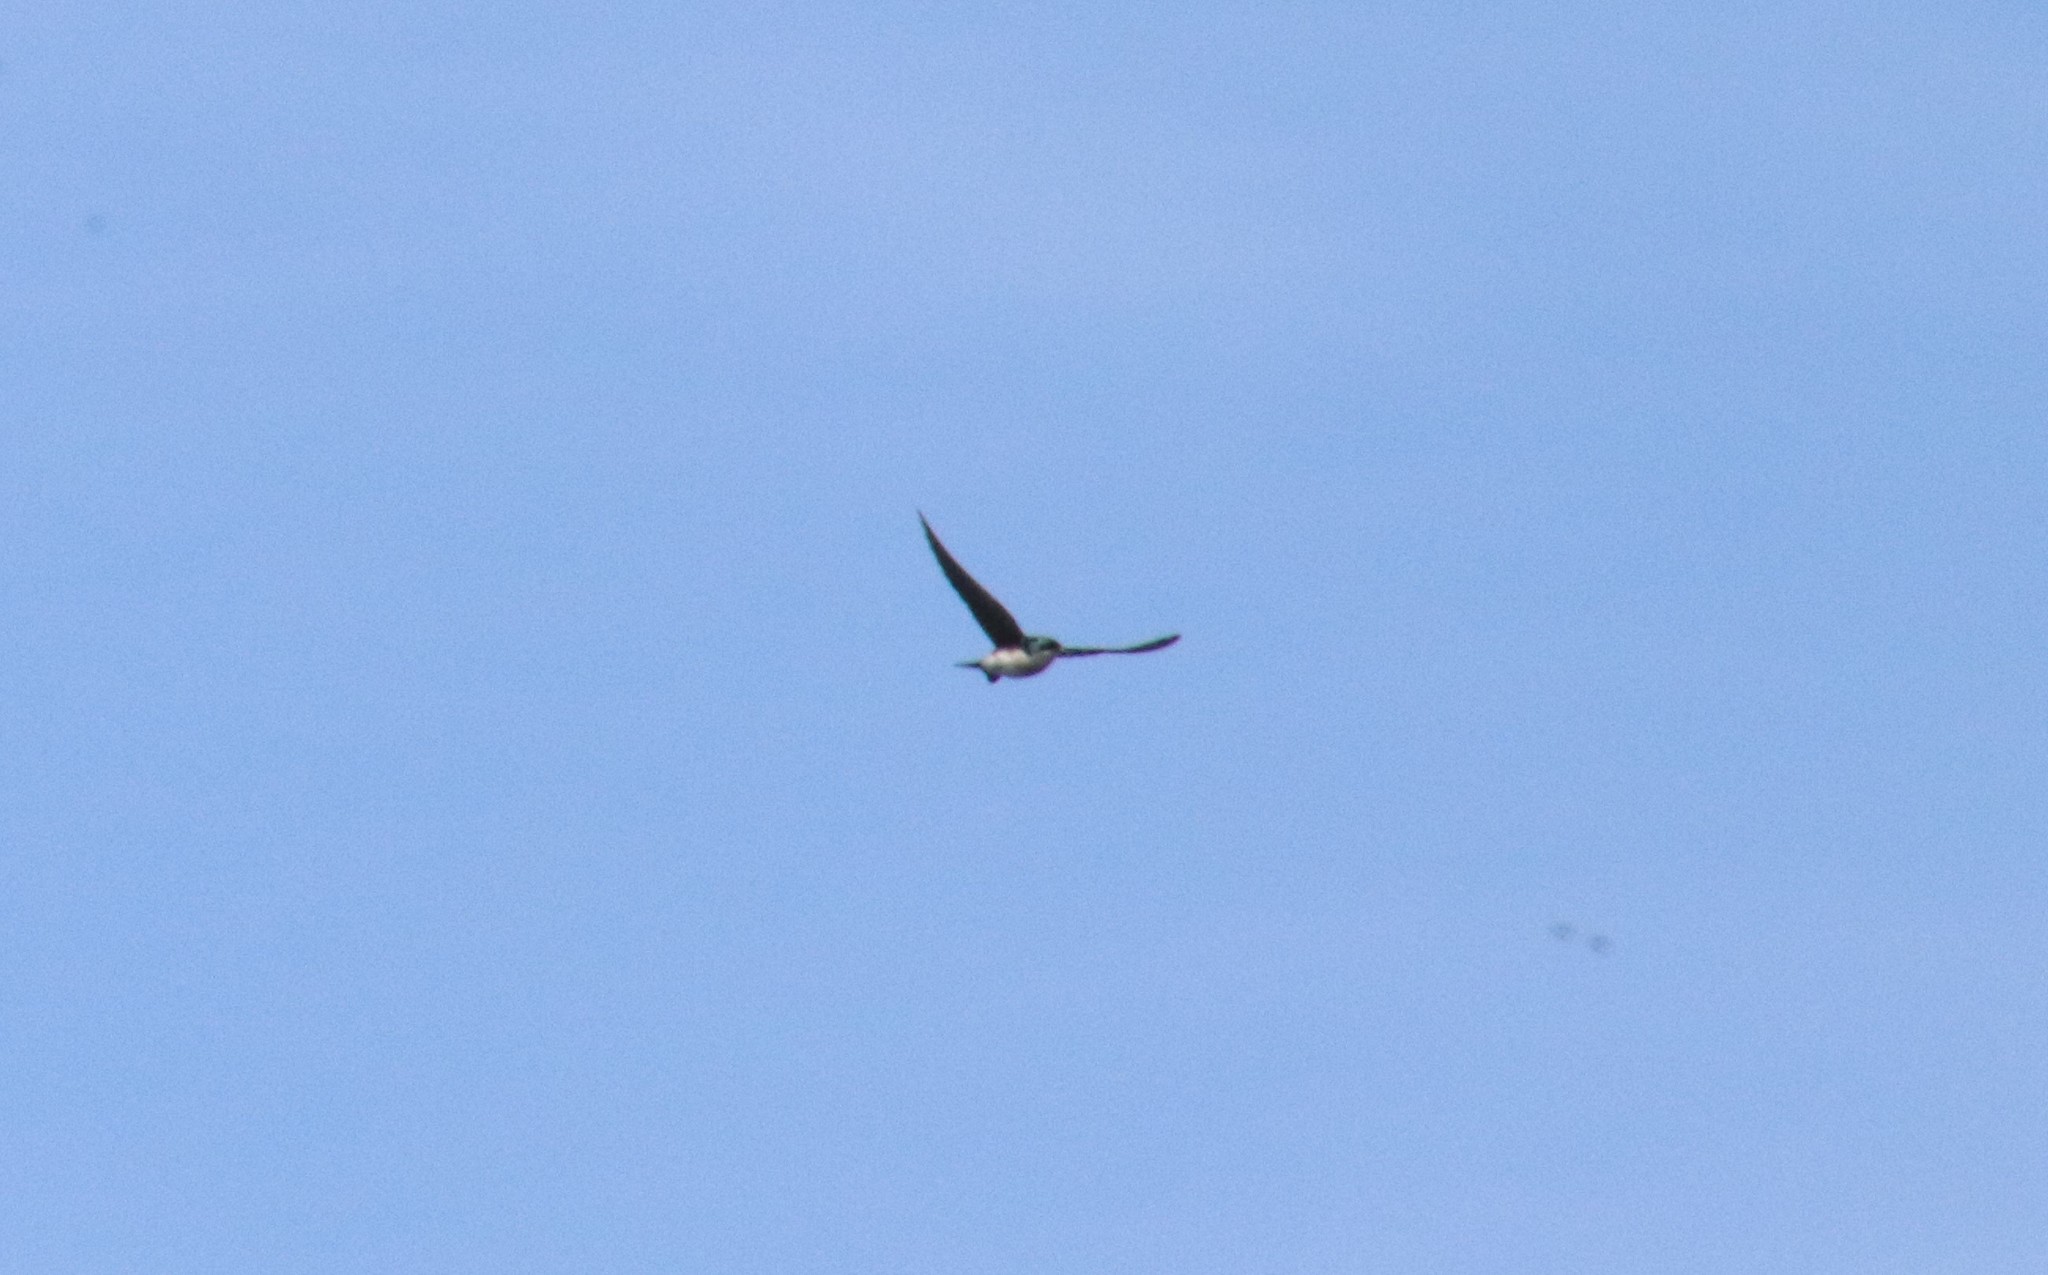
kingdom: Animalia
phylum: Chordata
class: Aves
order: Passeriformes
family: Hirundinidae
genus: Tachycineta
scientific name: Tachycineta bicolor
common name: Tree swallow
